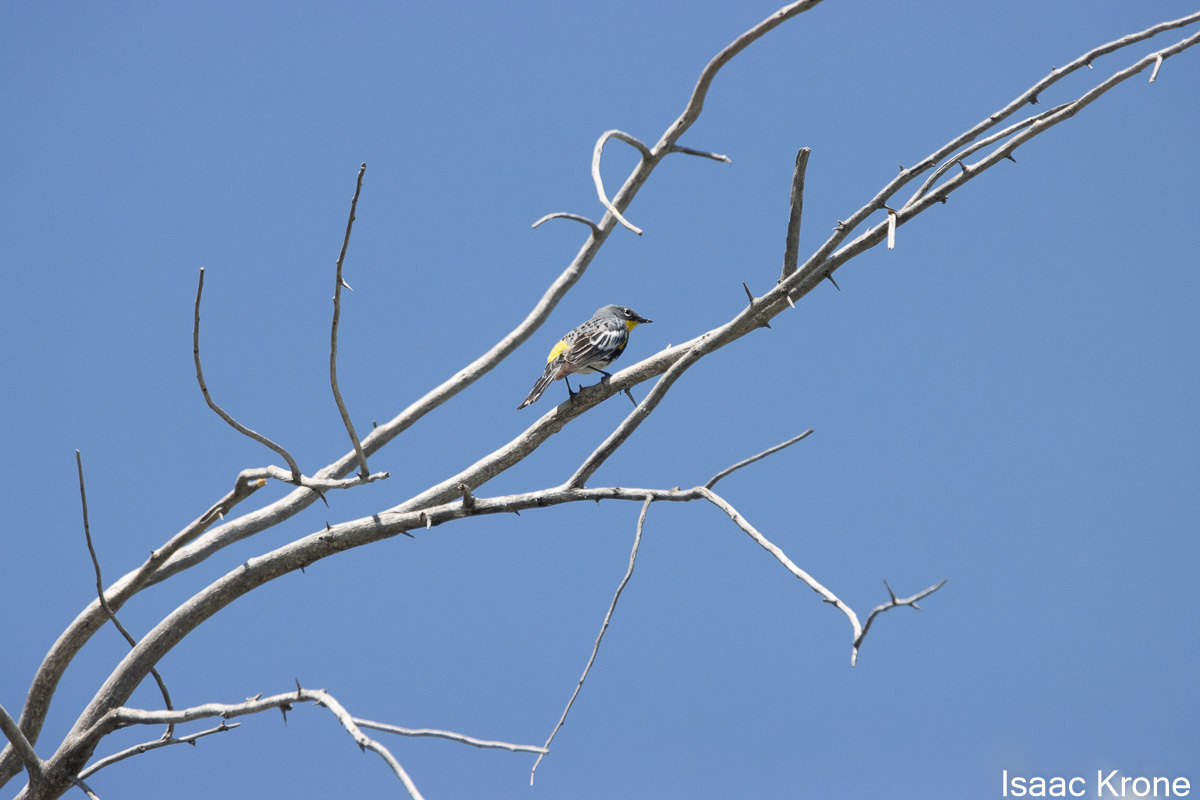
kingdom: Animalia
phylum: Chordata
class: Aves
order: Passeriformes
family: Parulidae
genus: Setophaga
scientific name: Setophaga coronata
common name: Myrtle warbler
